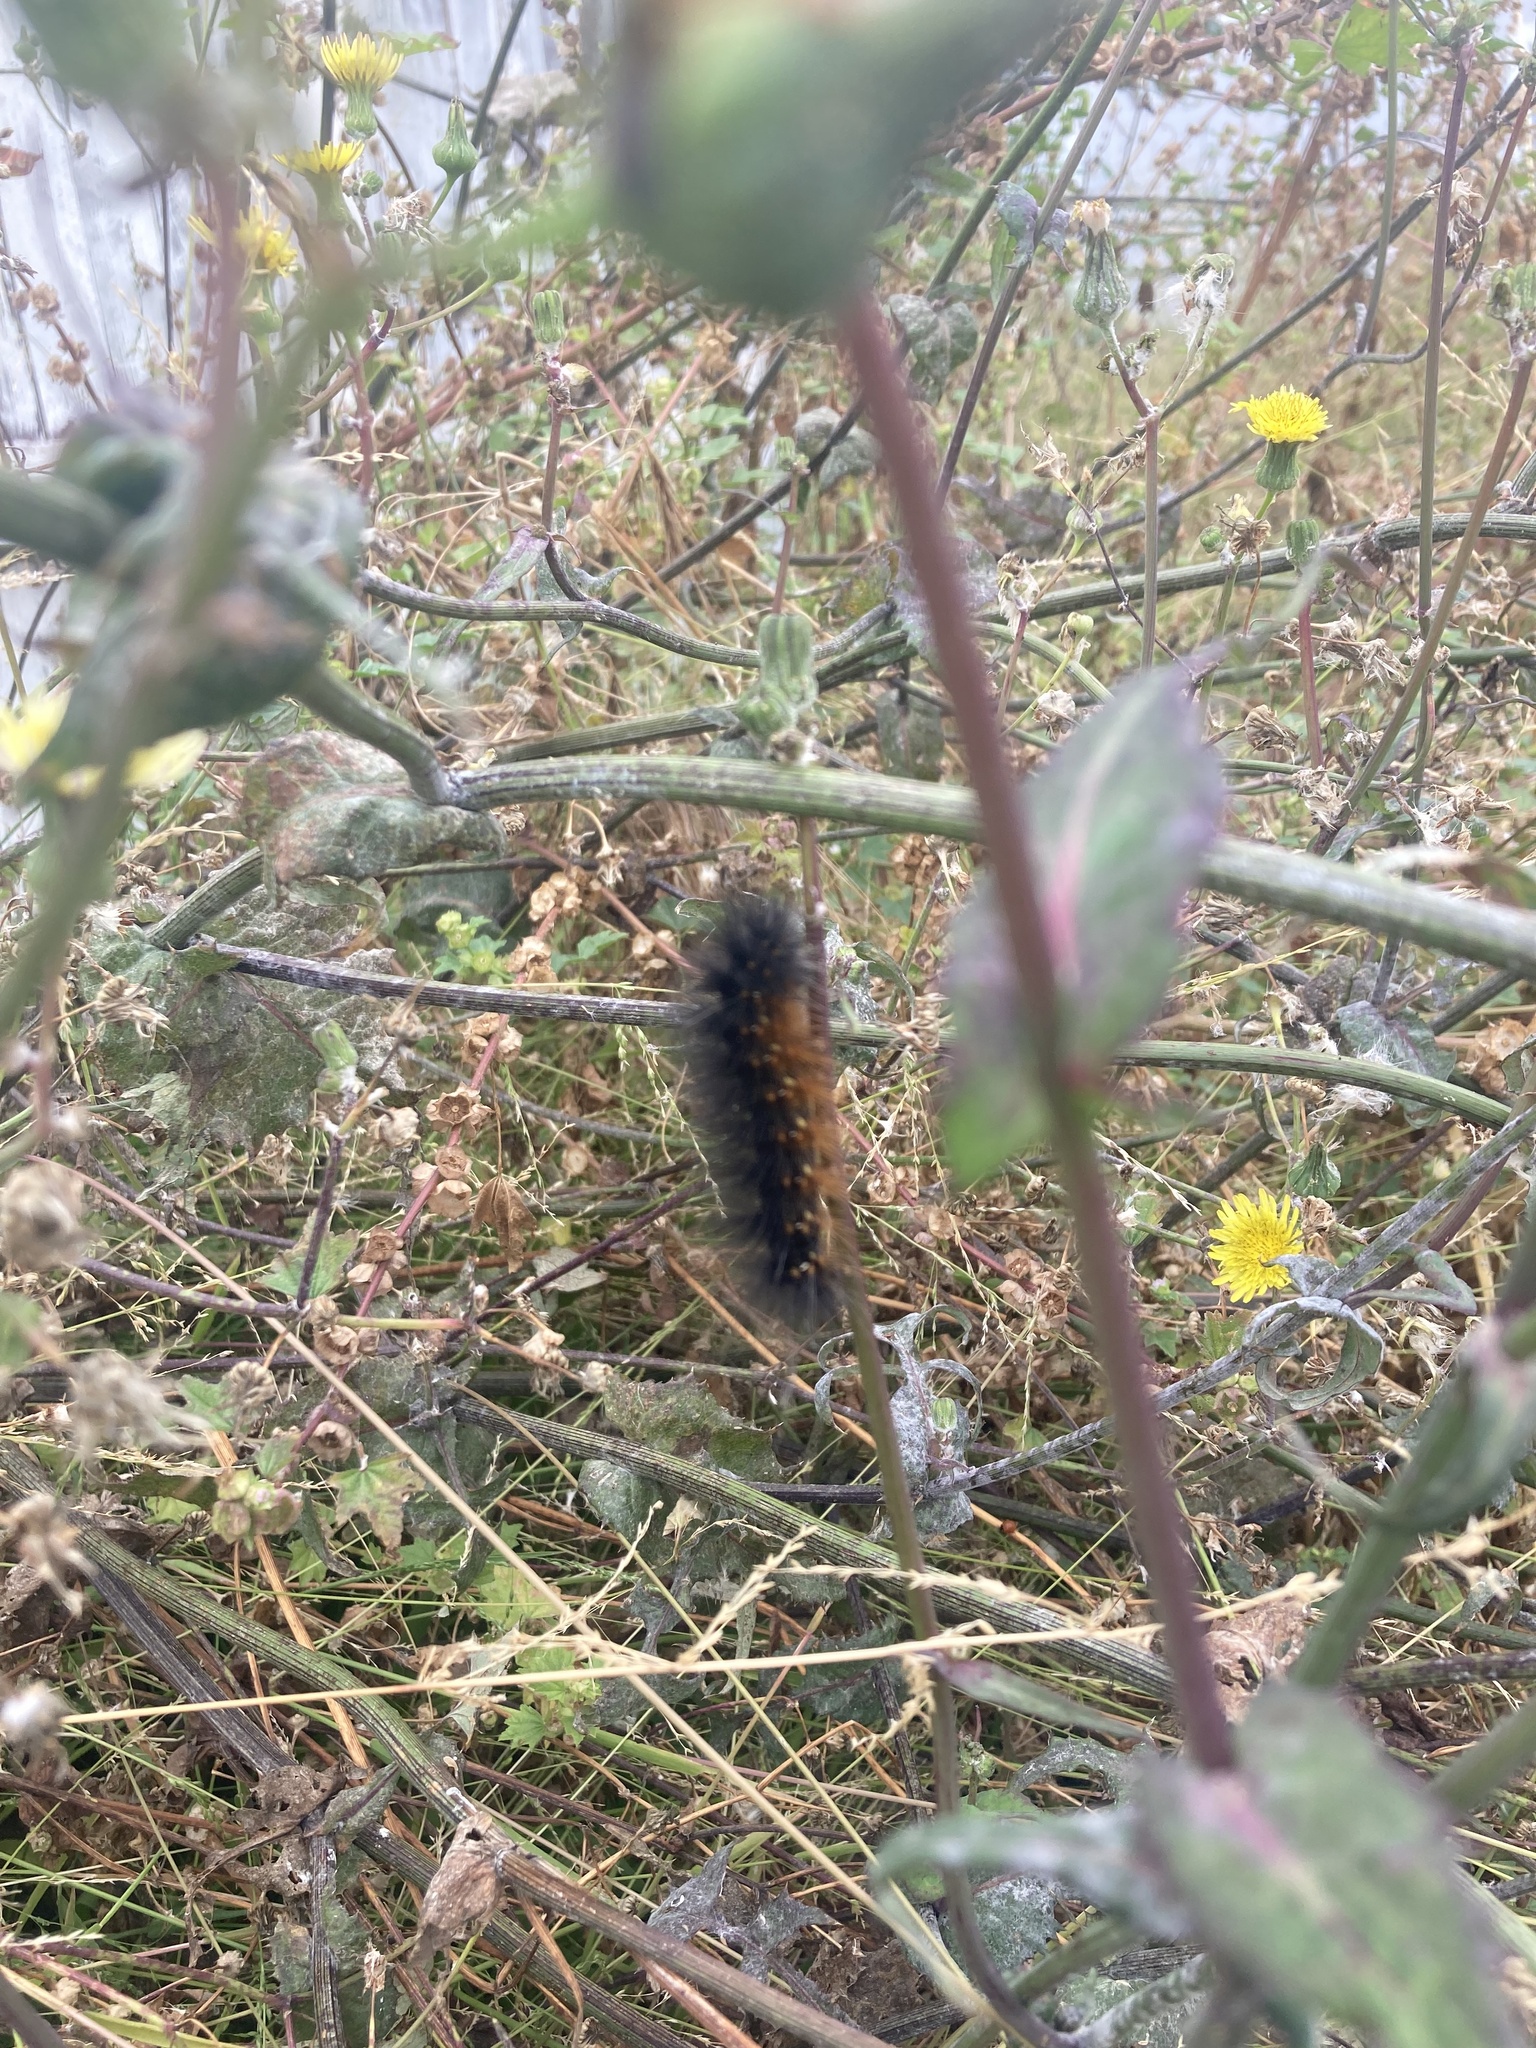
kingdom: Animalia
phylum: Arthropoda
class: Insecta
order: Lepidoptera
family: Erebidae
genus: Estigmene
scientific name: Estigmene acrea
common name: Salt marsh moth
